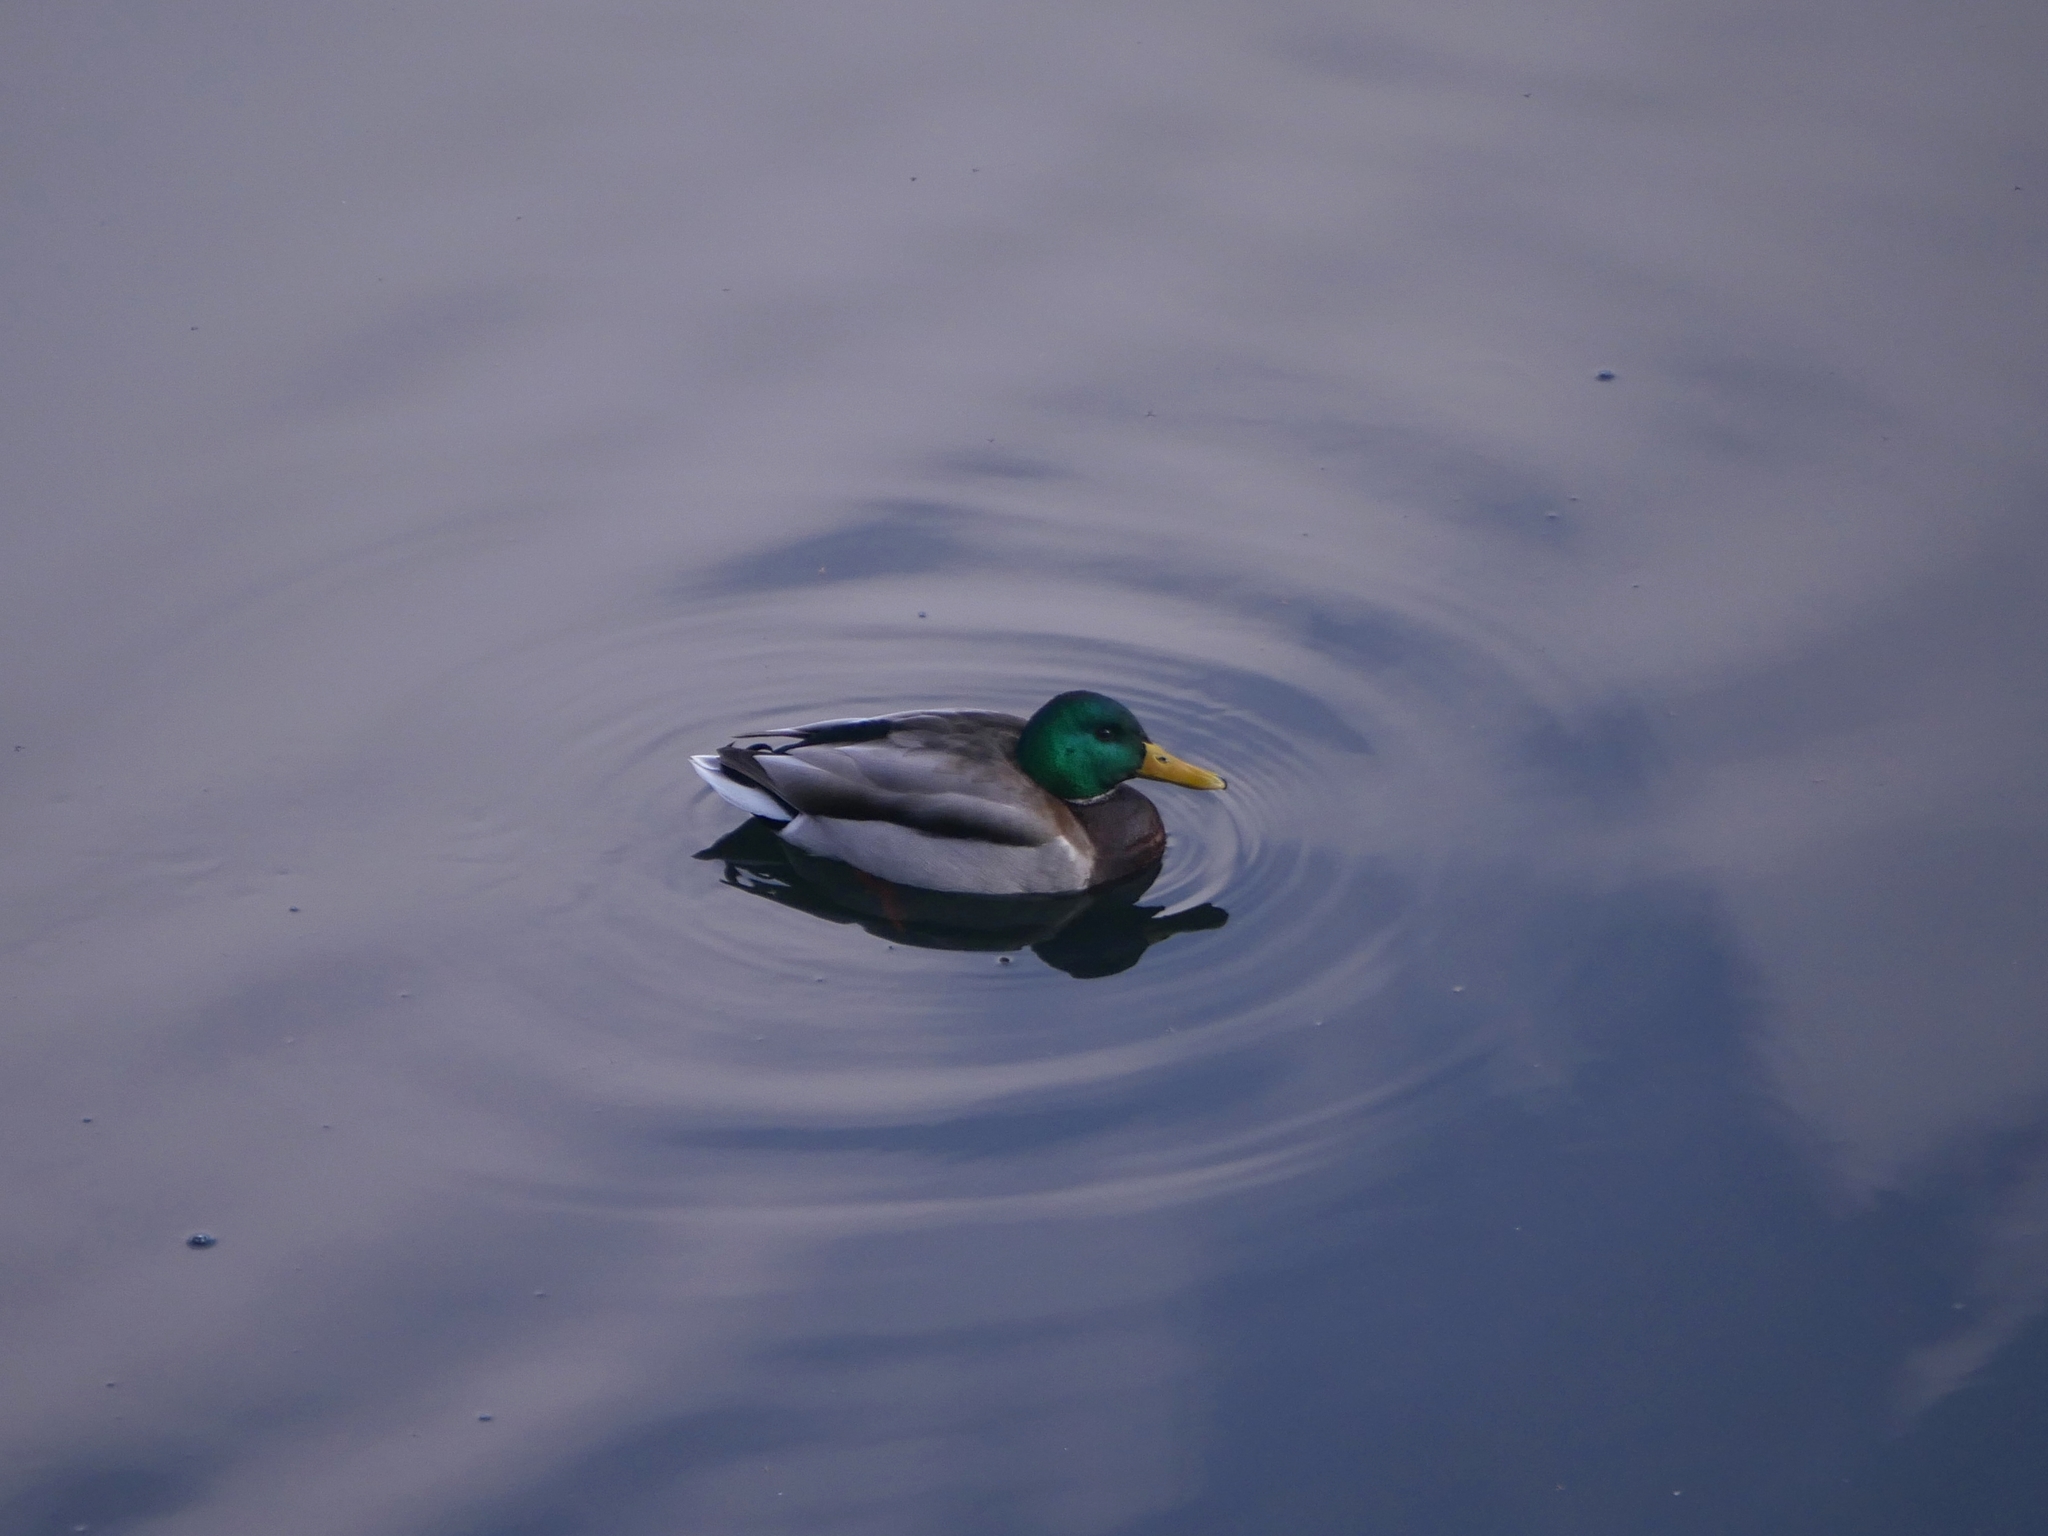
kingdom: Animalia
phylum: Chordata
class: Aves
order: Anseriformes
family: Anatidae
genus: Anas
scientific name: Anas platyrhynchos
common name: Mallard
